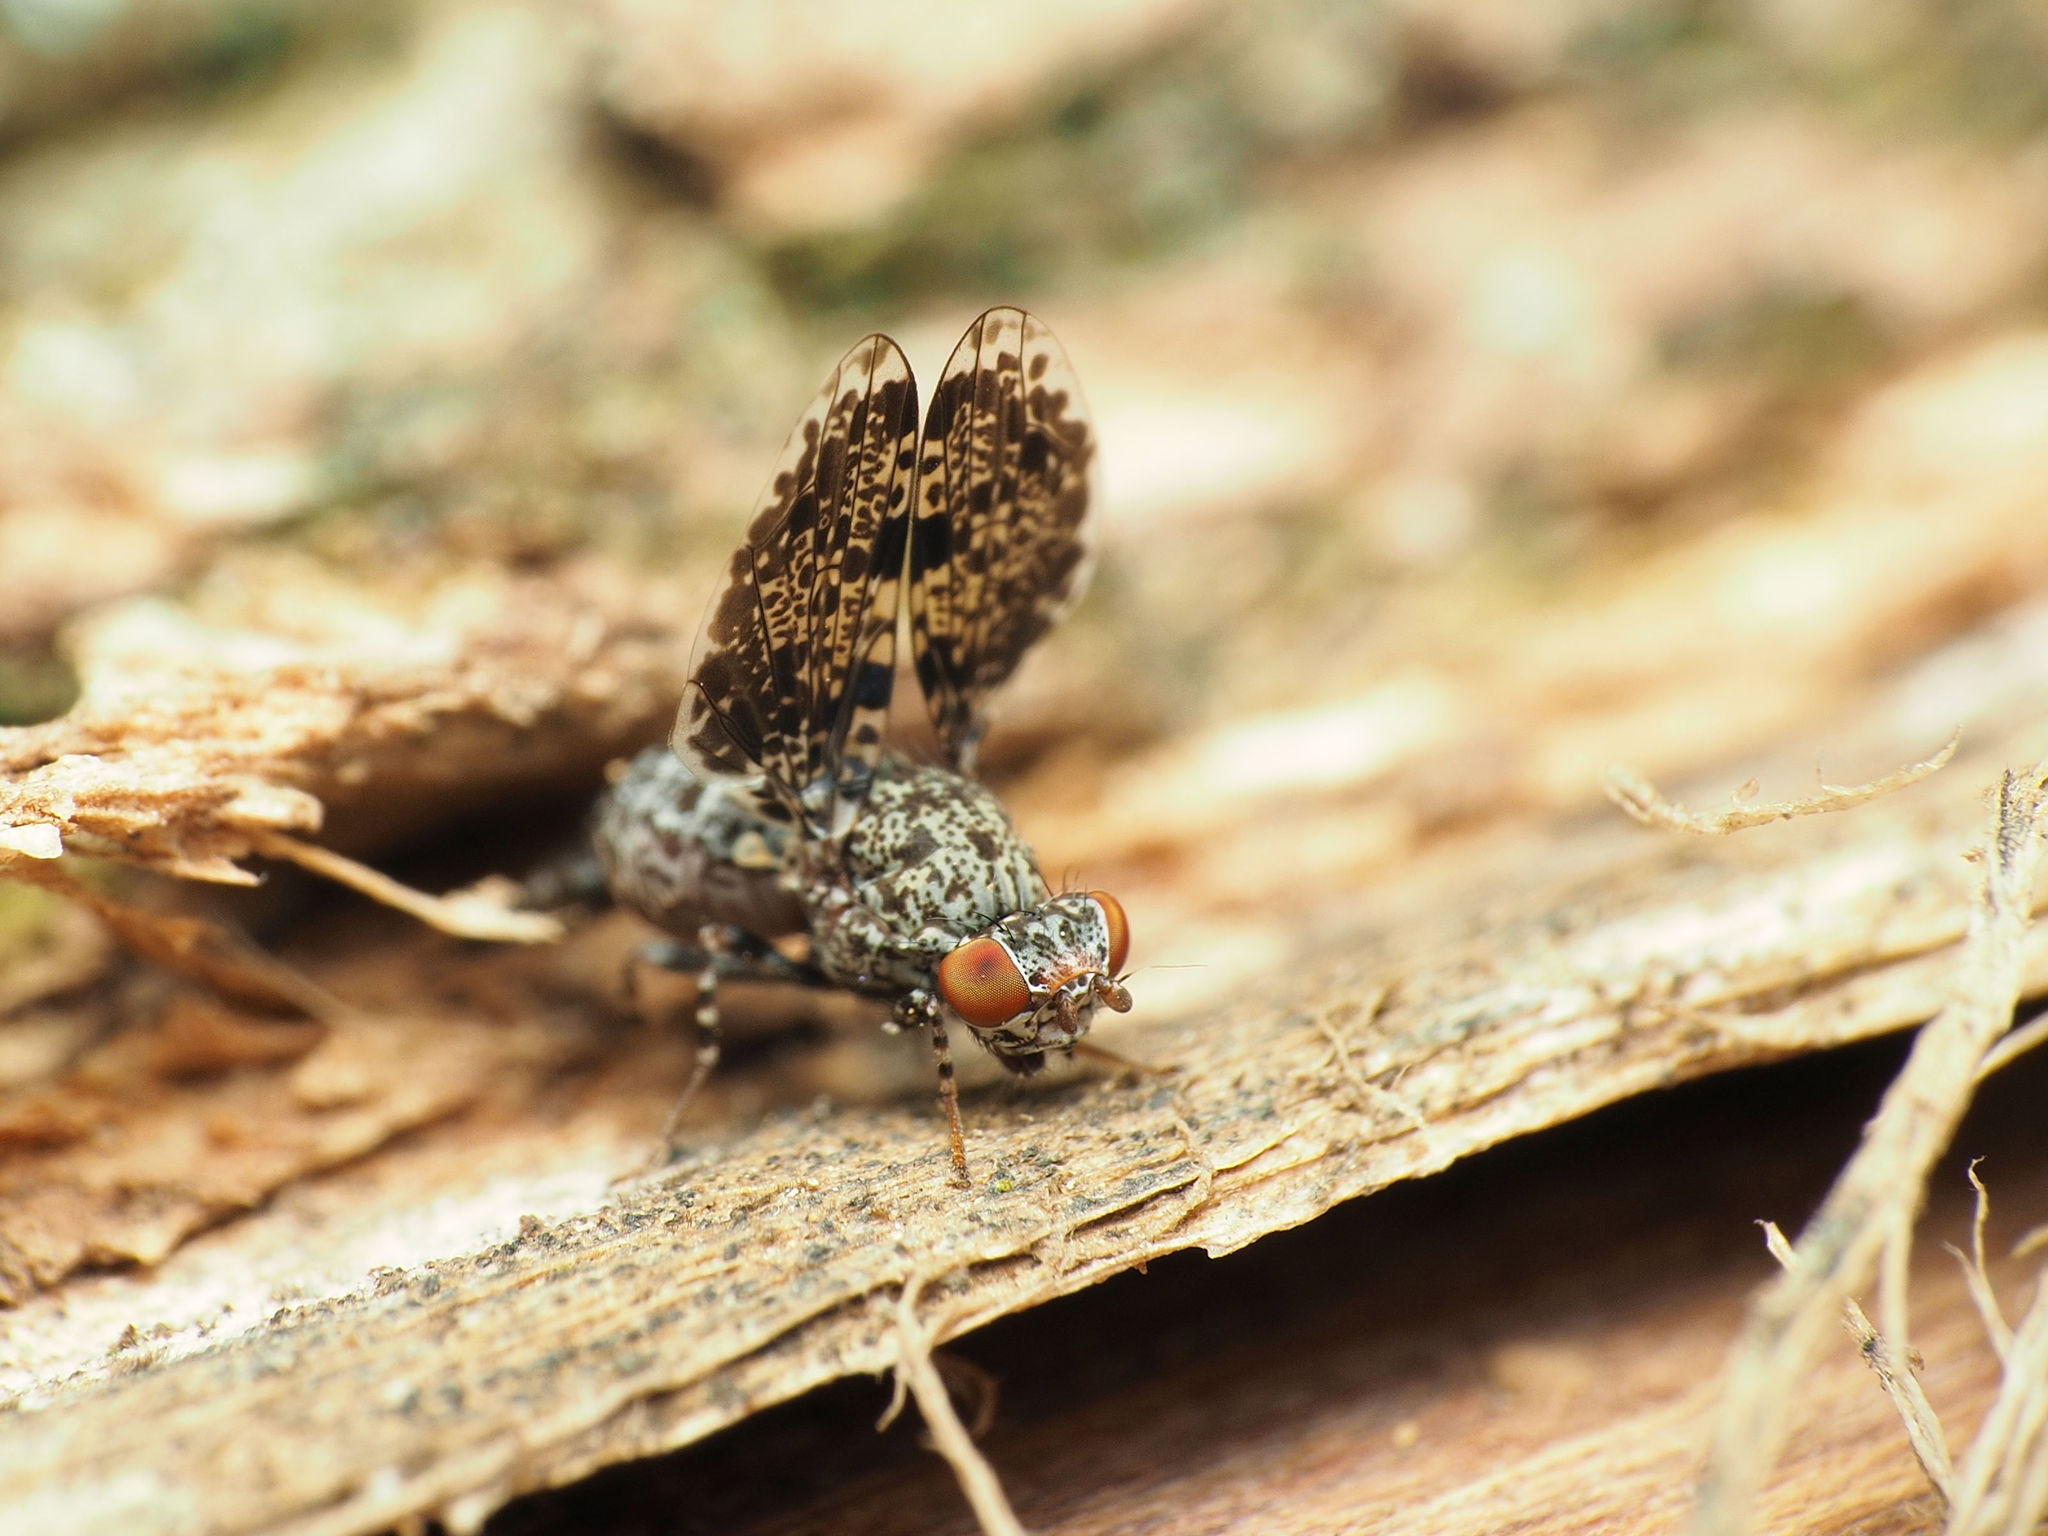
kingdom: Animalia
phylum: Arthropoda
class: Insecta
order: Diptera
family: Ulidiidae
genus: Callopistromyia
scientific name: Callopistromyia annulipes
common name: Peacock fly
